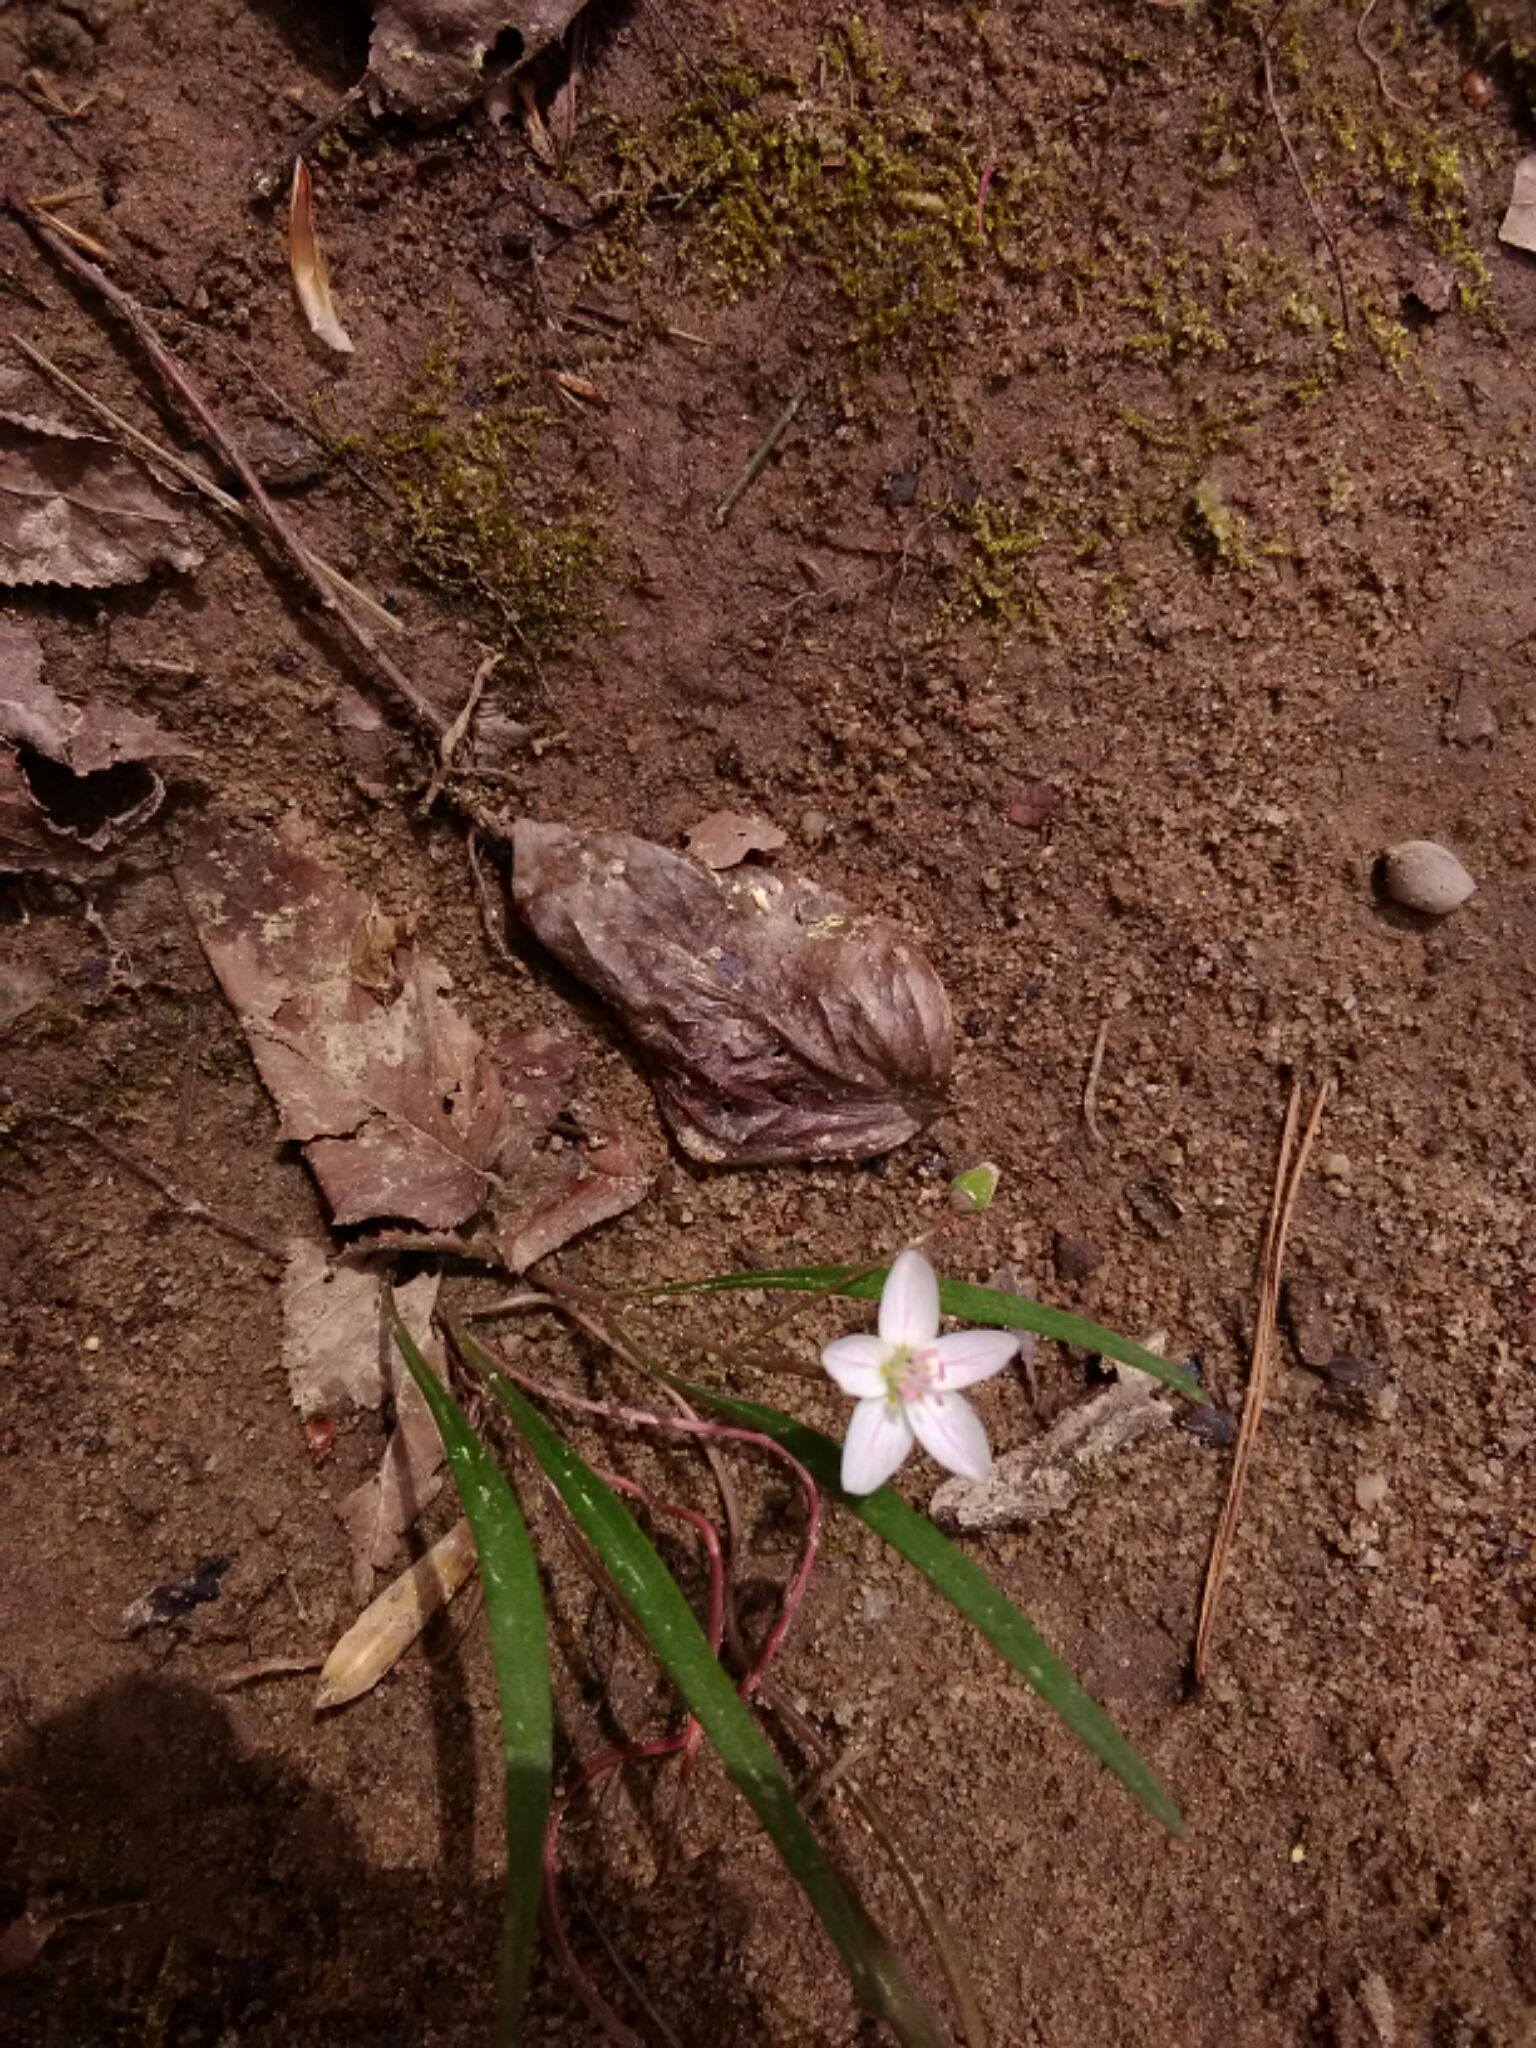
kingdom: Plantae
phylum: Tracheophyta
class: Magnoliopsida
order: Caryophyllales
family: Montiaceae
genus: Claytonia
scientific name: Claytonia virginica
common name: Virginia springbeauty
